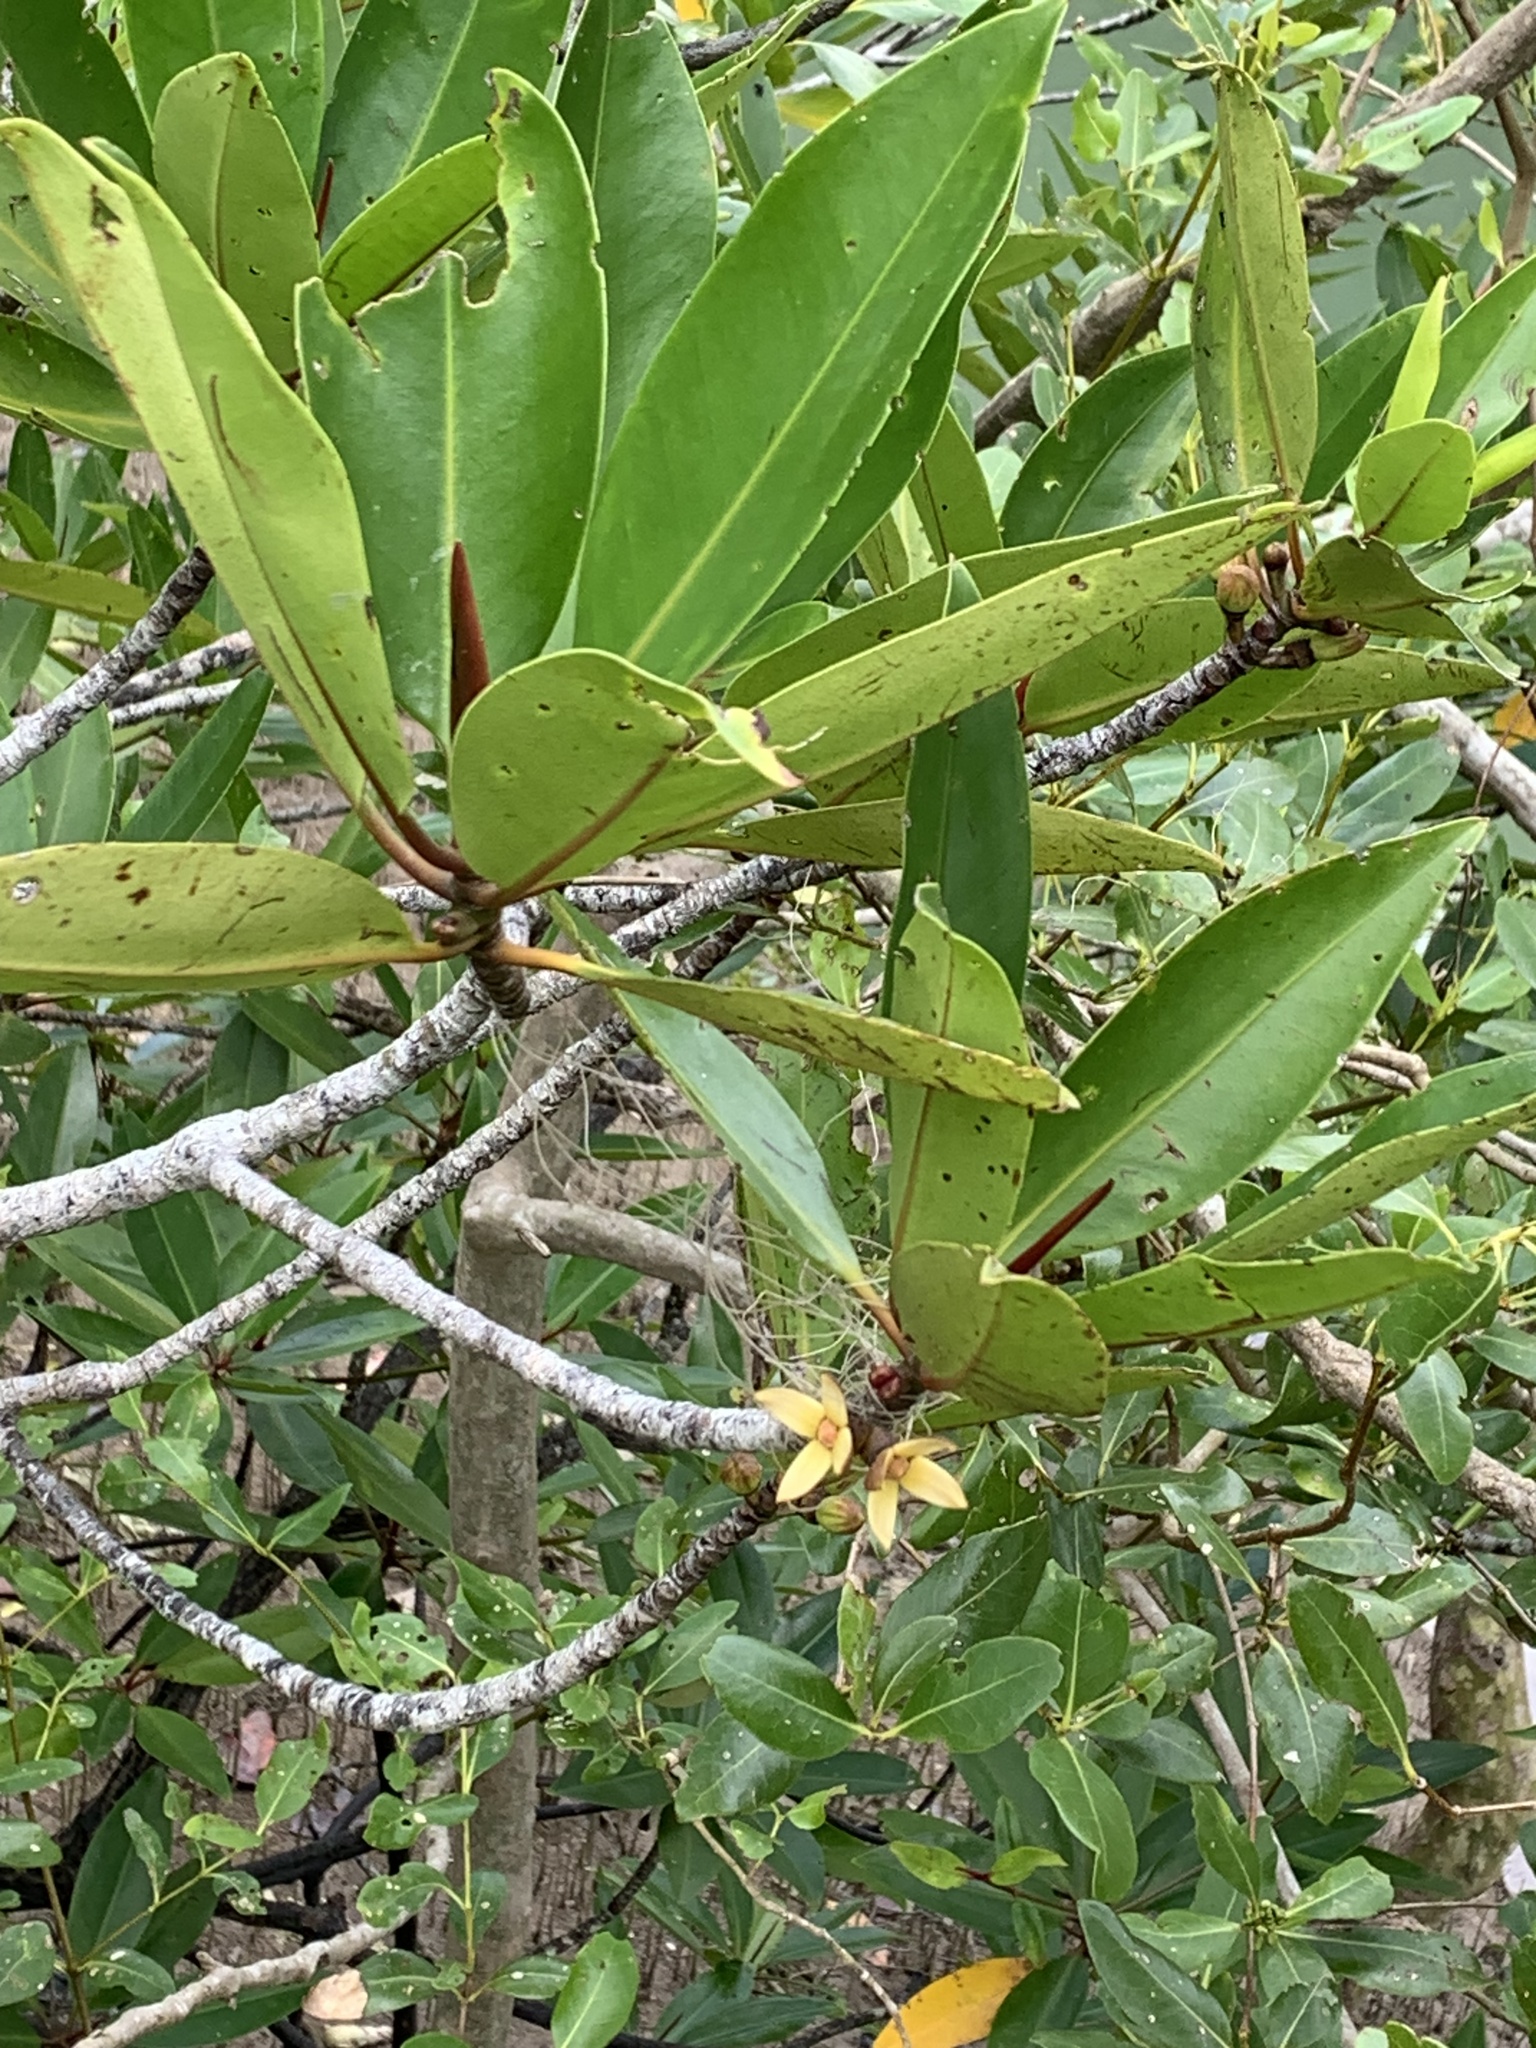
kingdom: Plantae
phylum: Tracheophyta
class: Magnoliopsida
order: Malpighiales
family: Rhizophoraceae
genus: Rhizophora
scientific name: Rhizophora apiculata
